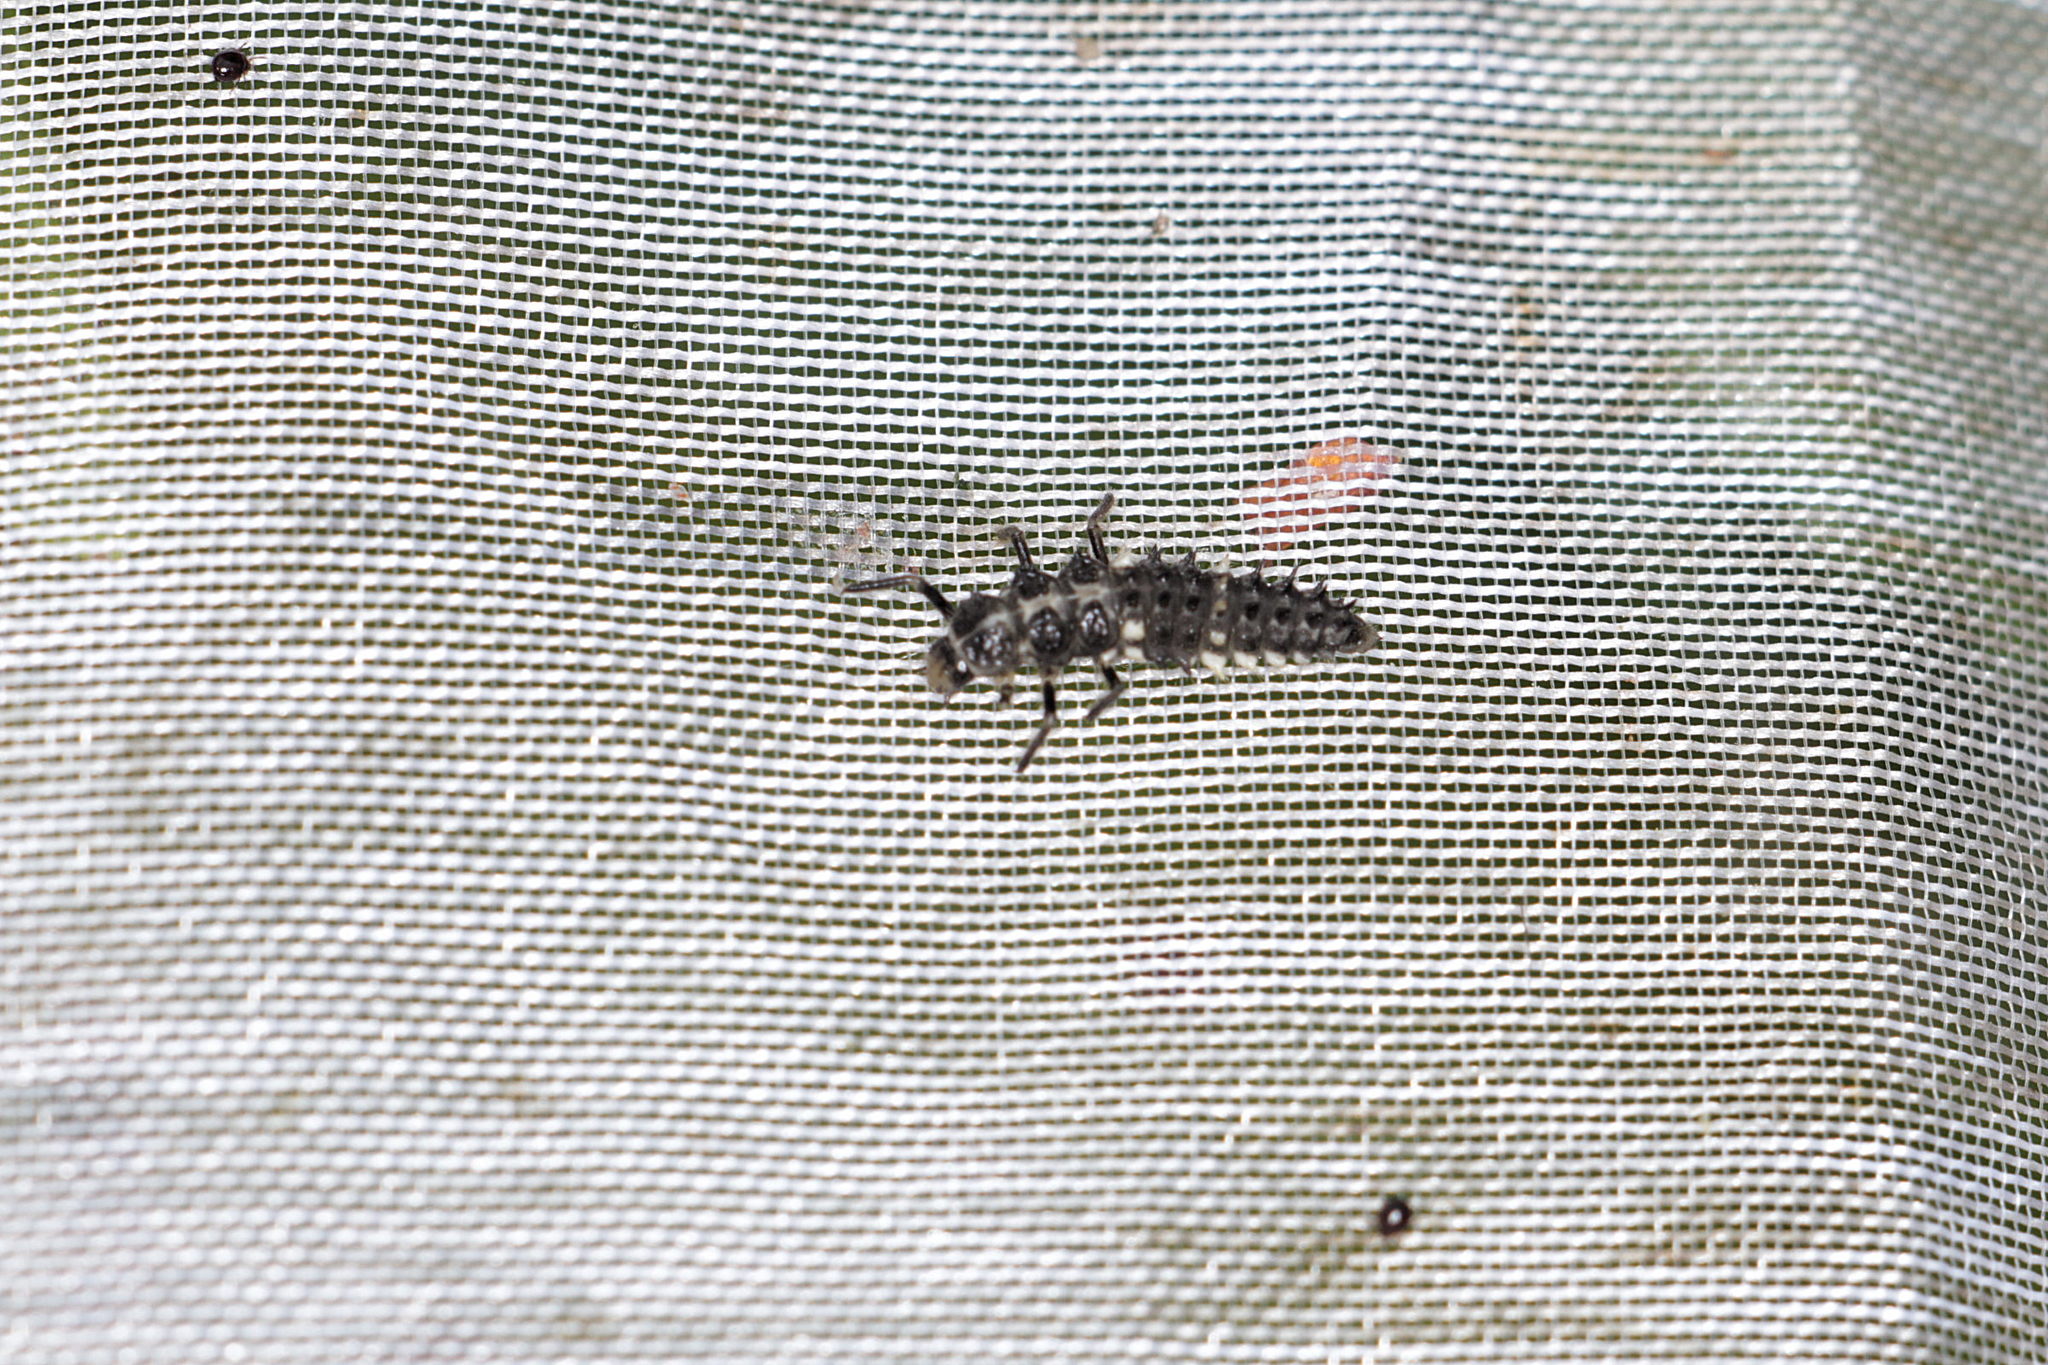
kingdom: Animalia
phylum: Arthropoda
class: Insecta
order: Coleoptera
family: Coccinellidae
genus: Calvia
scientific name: Calvia quatuordecimguttata
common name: Cream-spot ladybird
